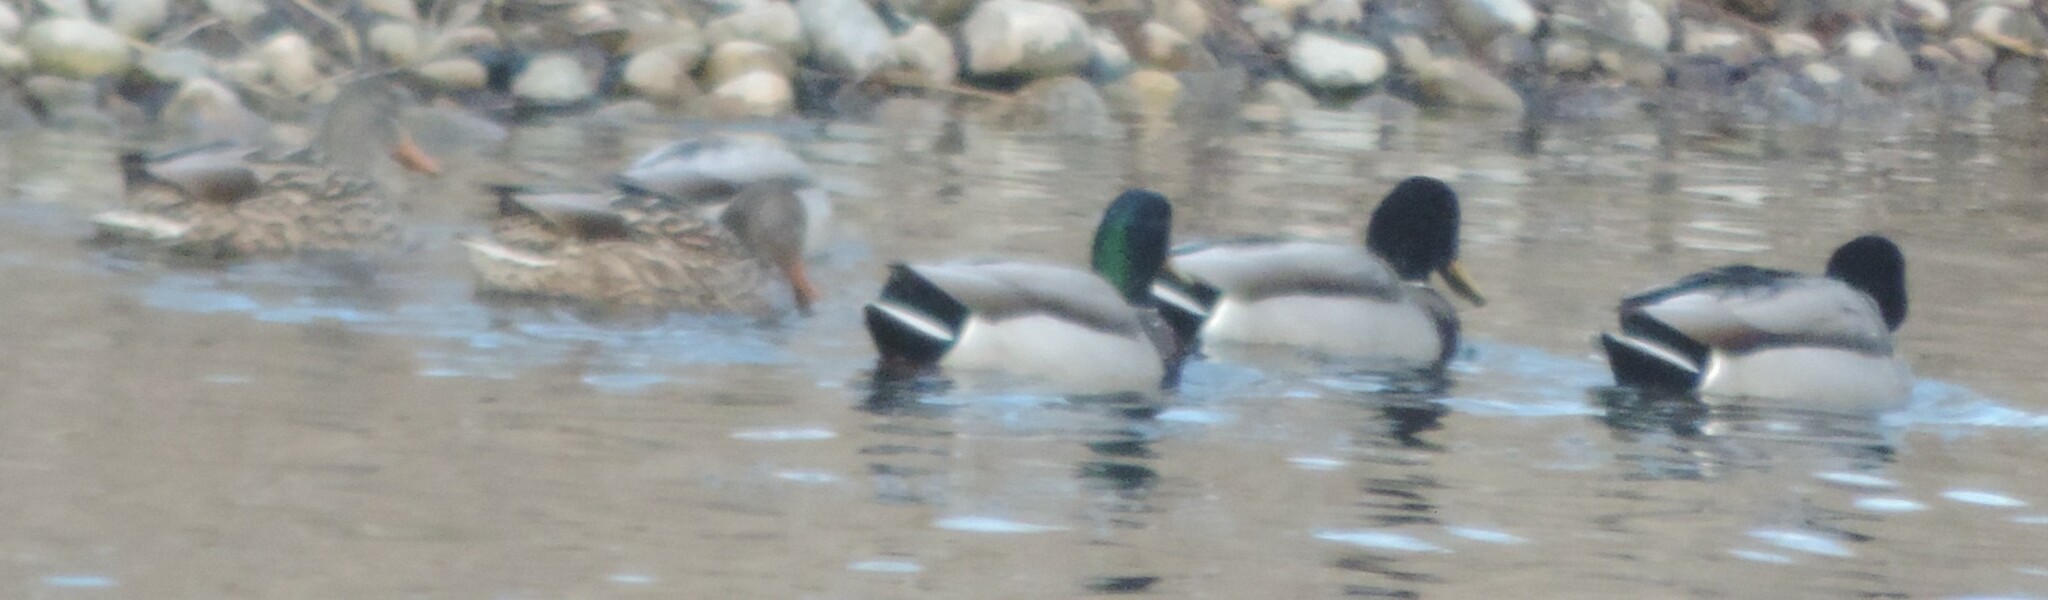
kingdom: Animalia
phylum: Chordata
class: Aves
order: Anseriformes
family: Anatidae
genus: Anas
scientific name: Anas platyrhynchos
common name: Mallard
